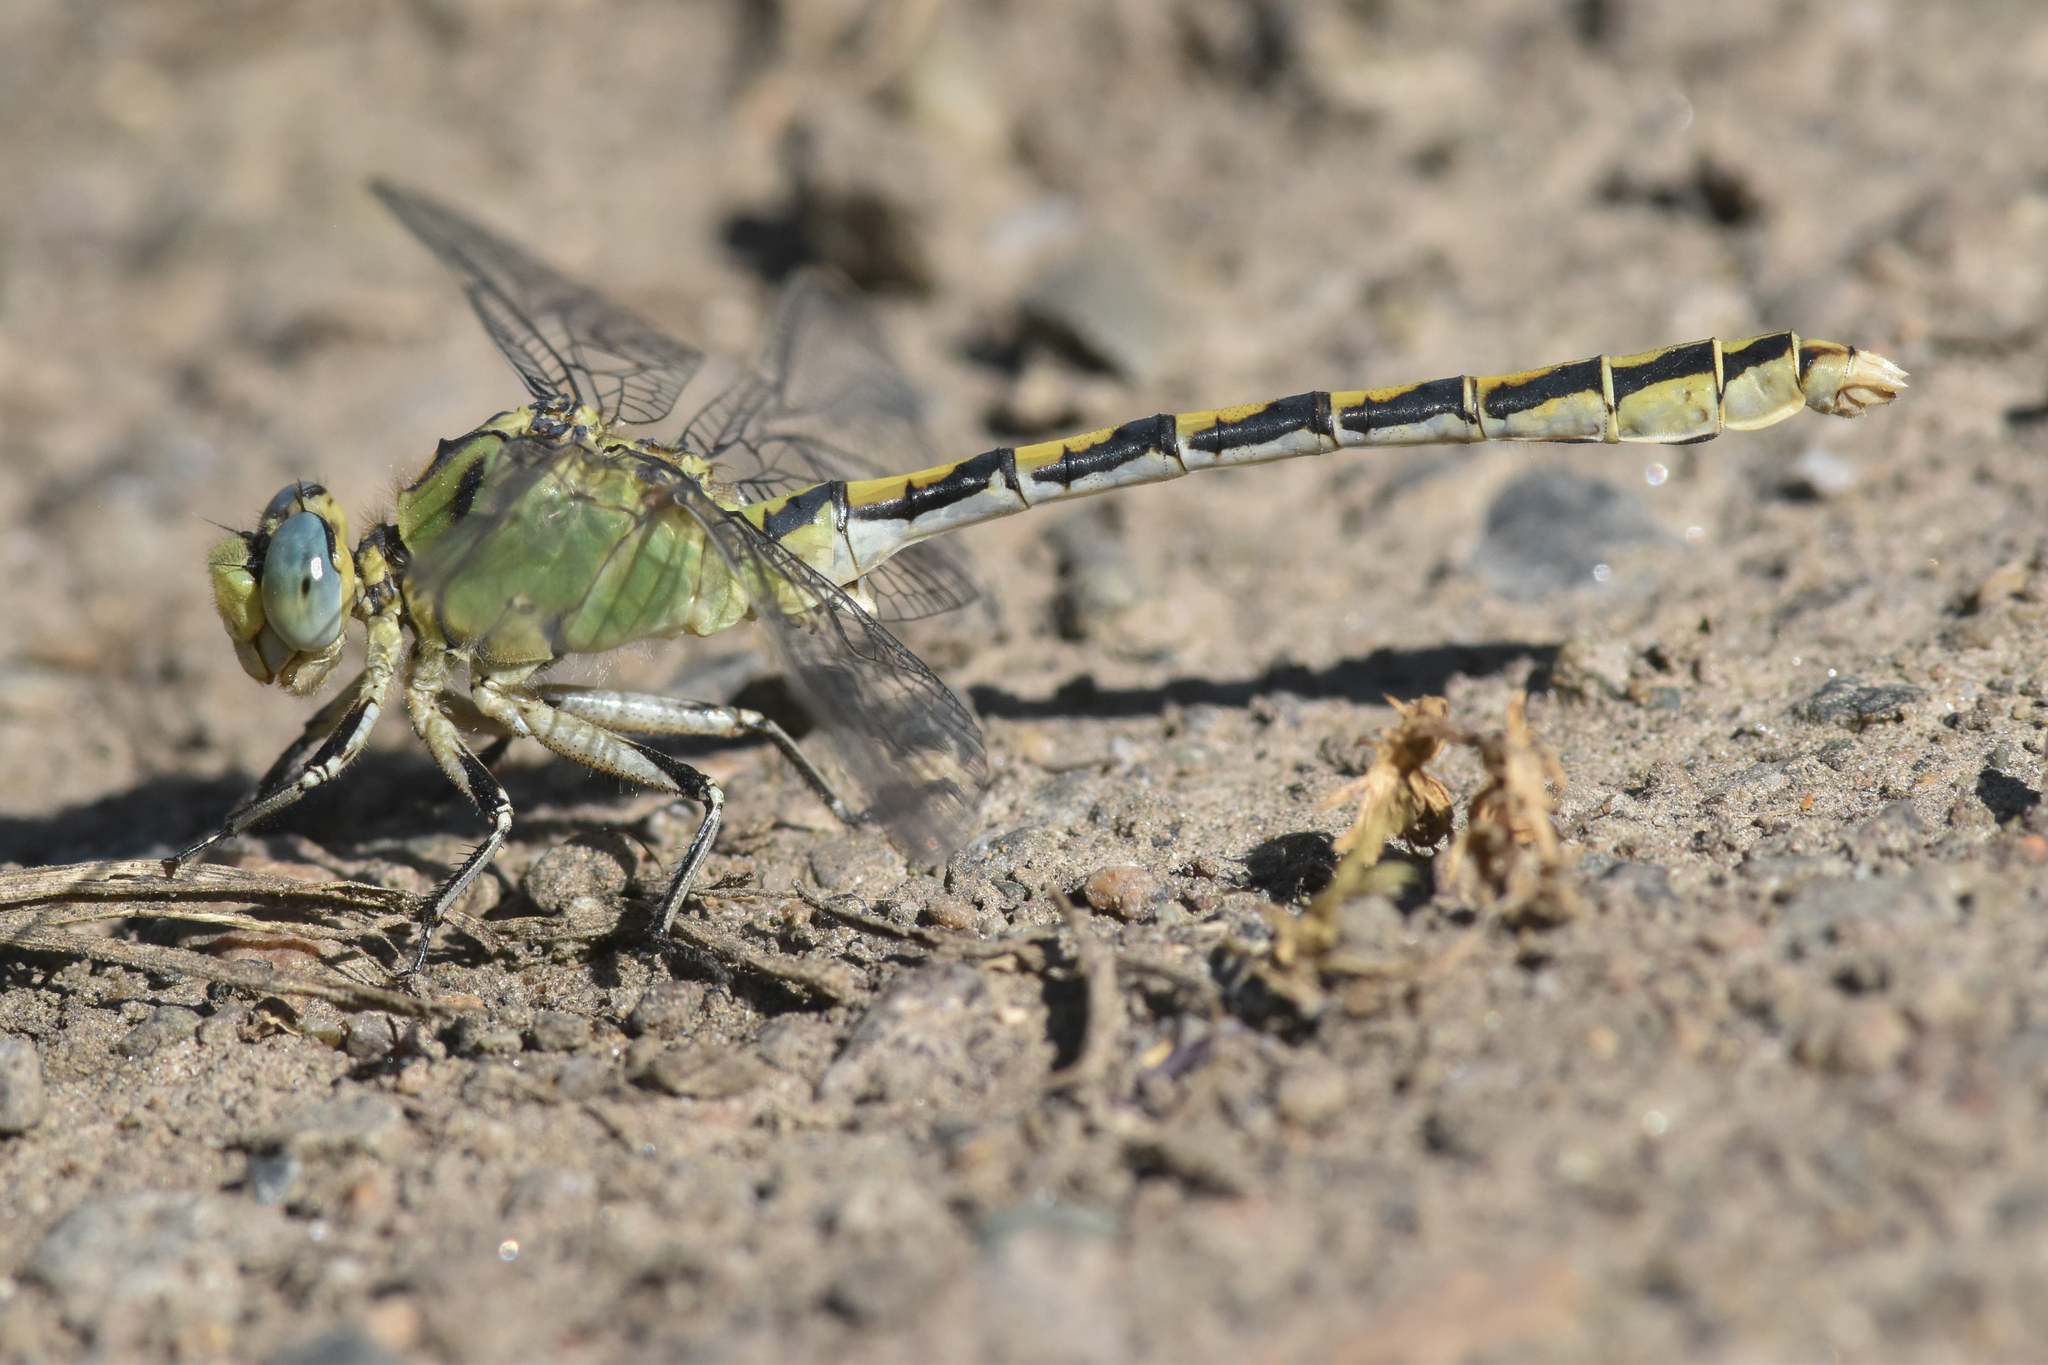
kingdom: Animalia
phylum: Arthropoda
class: Insecta
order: Odonata
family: Gomphidae
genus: Ophiogomphus
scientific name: Ophiogomphus severus
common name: Pale snaketail
